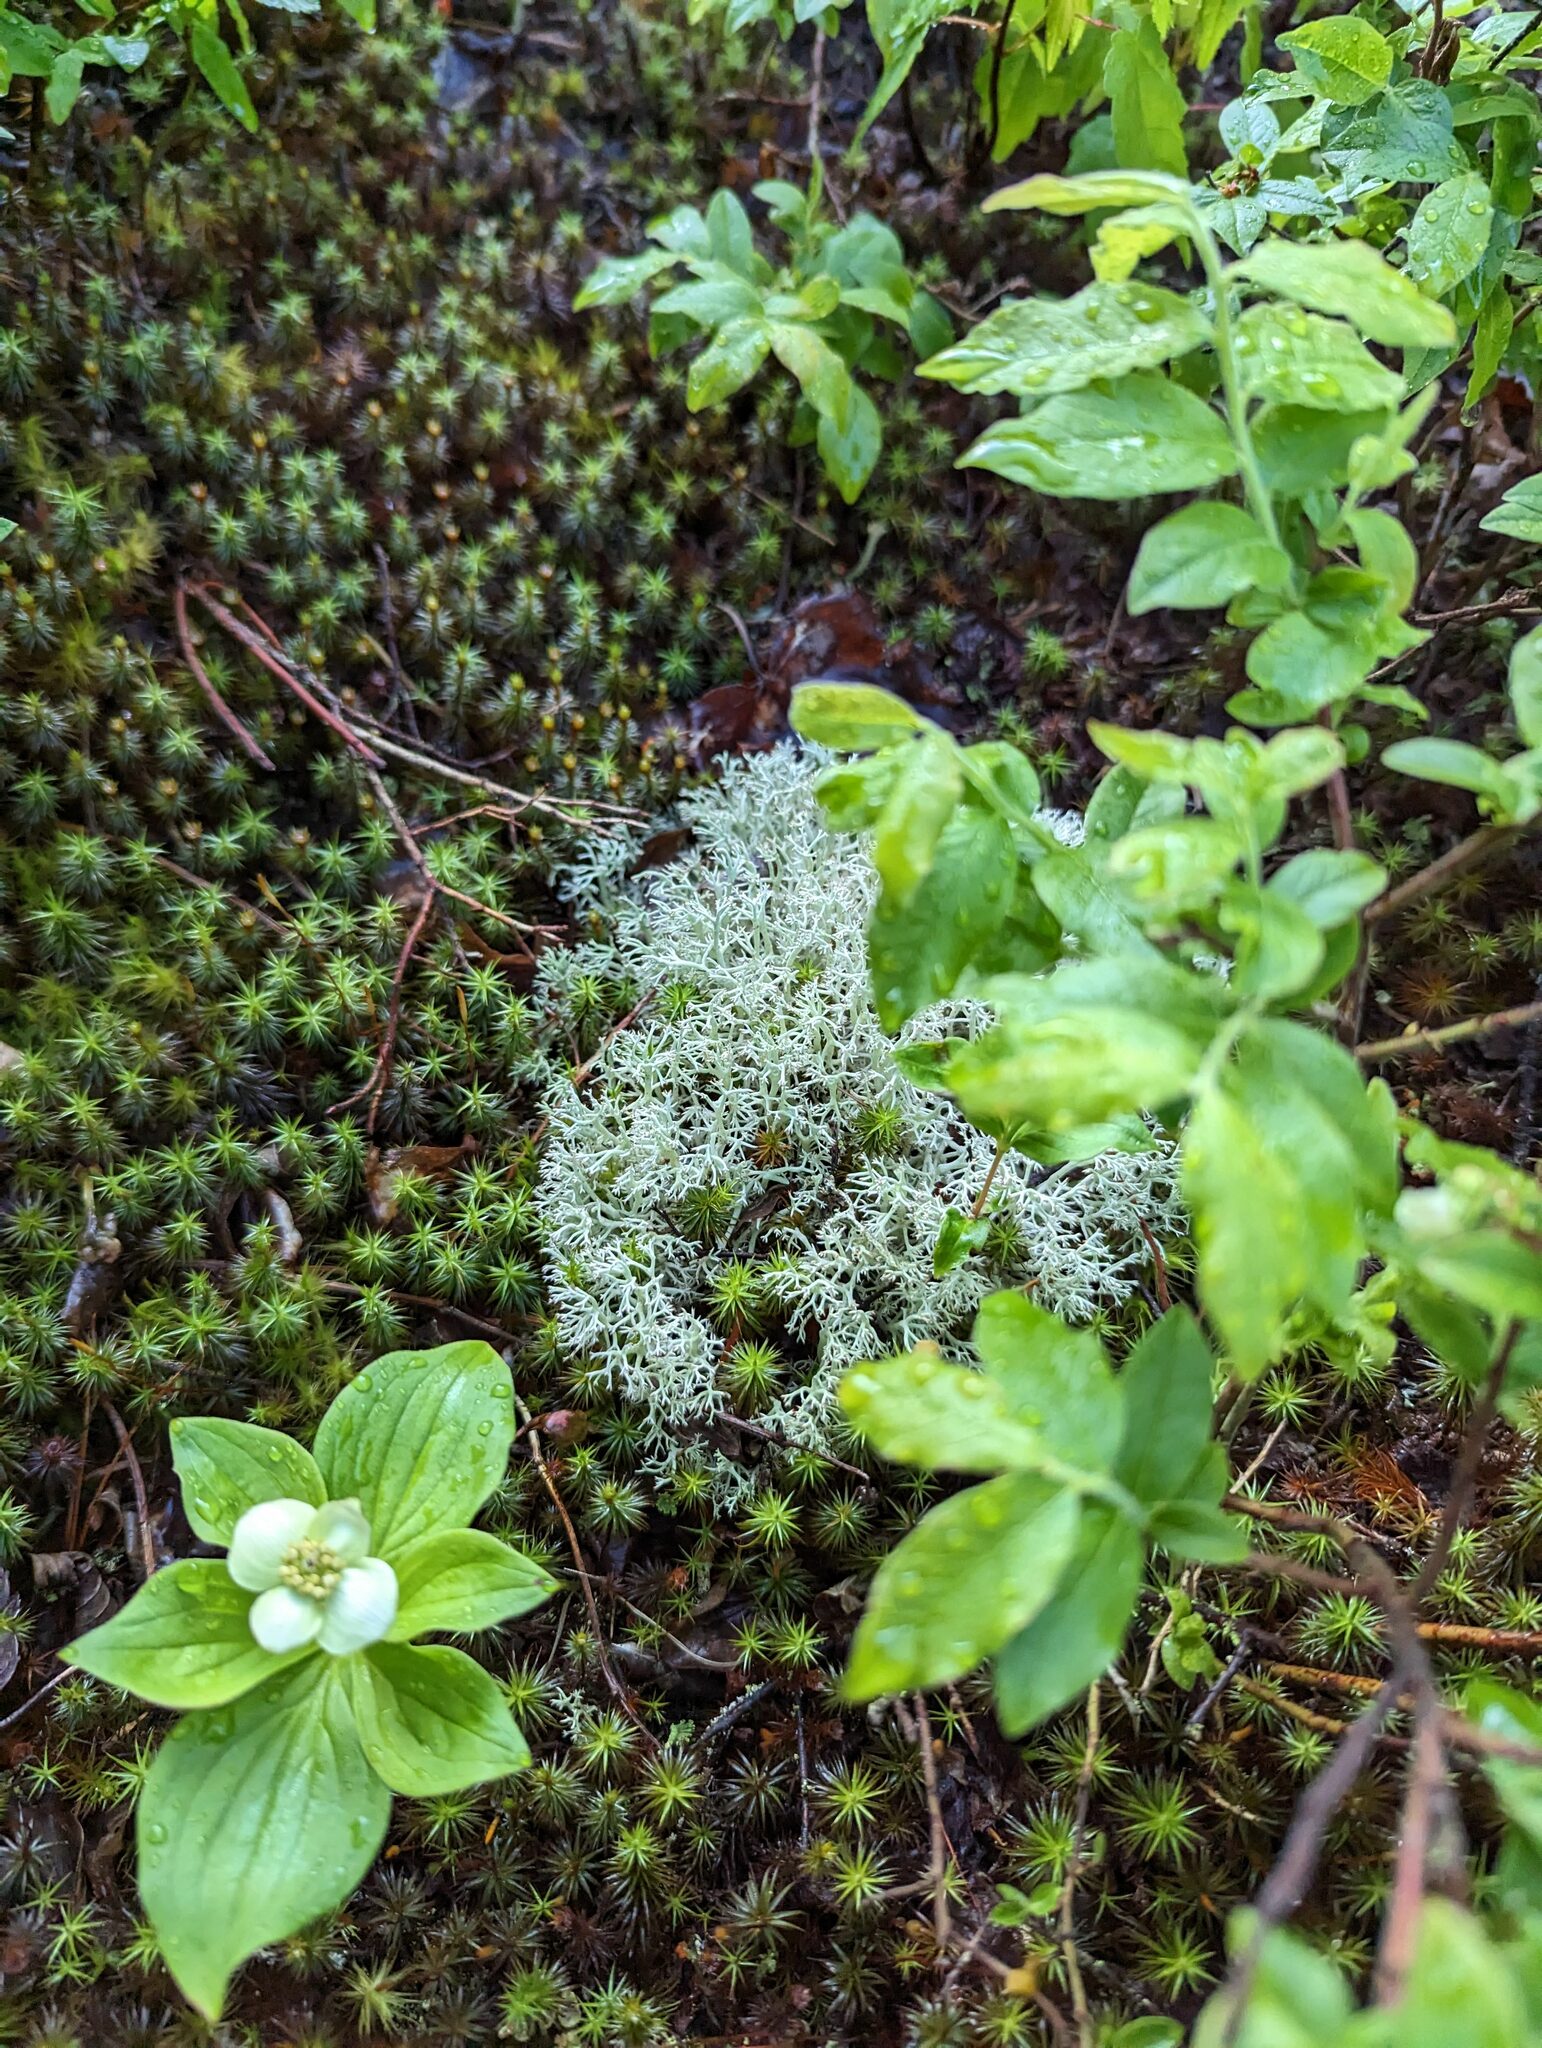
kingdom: Plantae
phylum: Tracheophyta
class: Magnoliopsida
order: Cornales
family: Cornaceae
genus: Cornus
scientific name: Cornus canadensis
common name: Creeping dogwood
